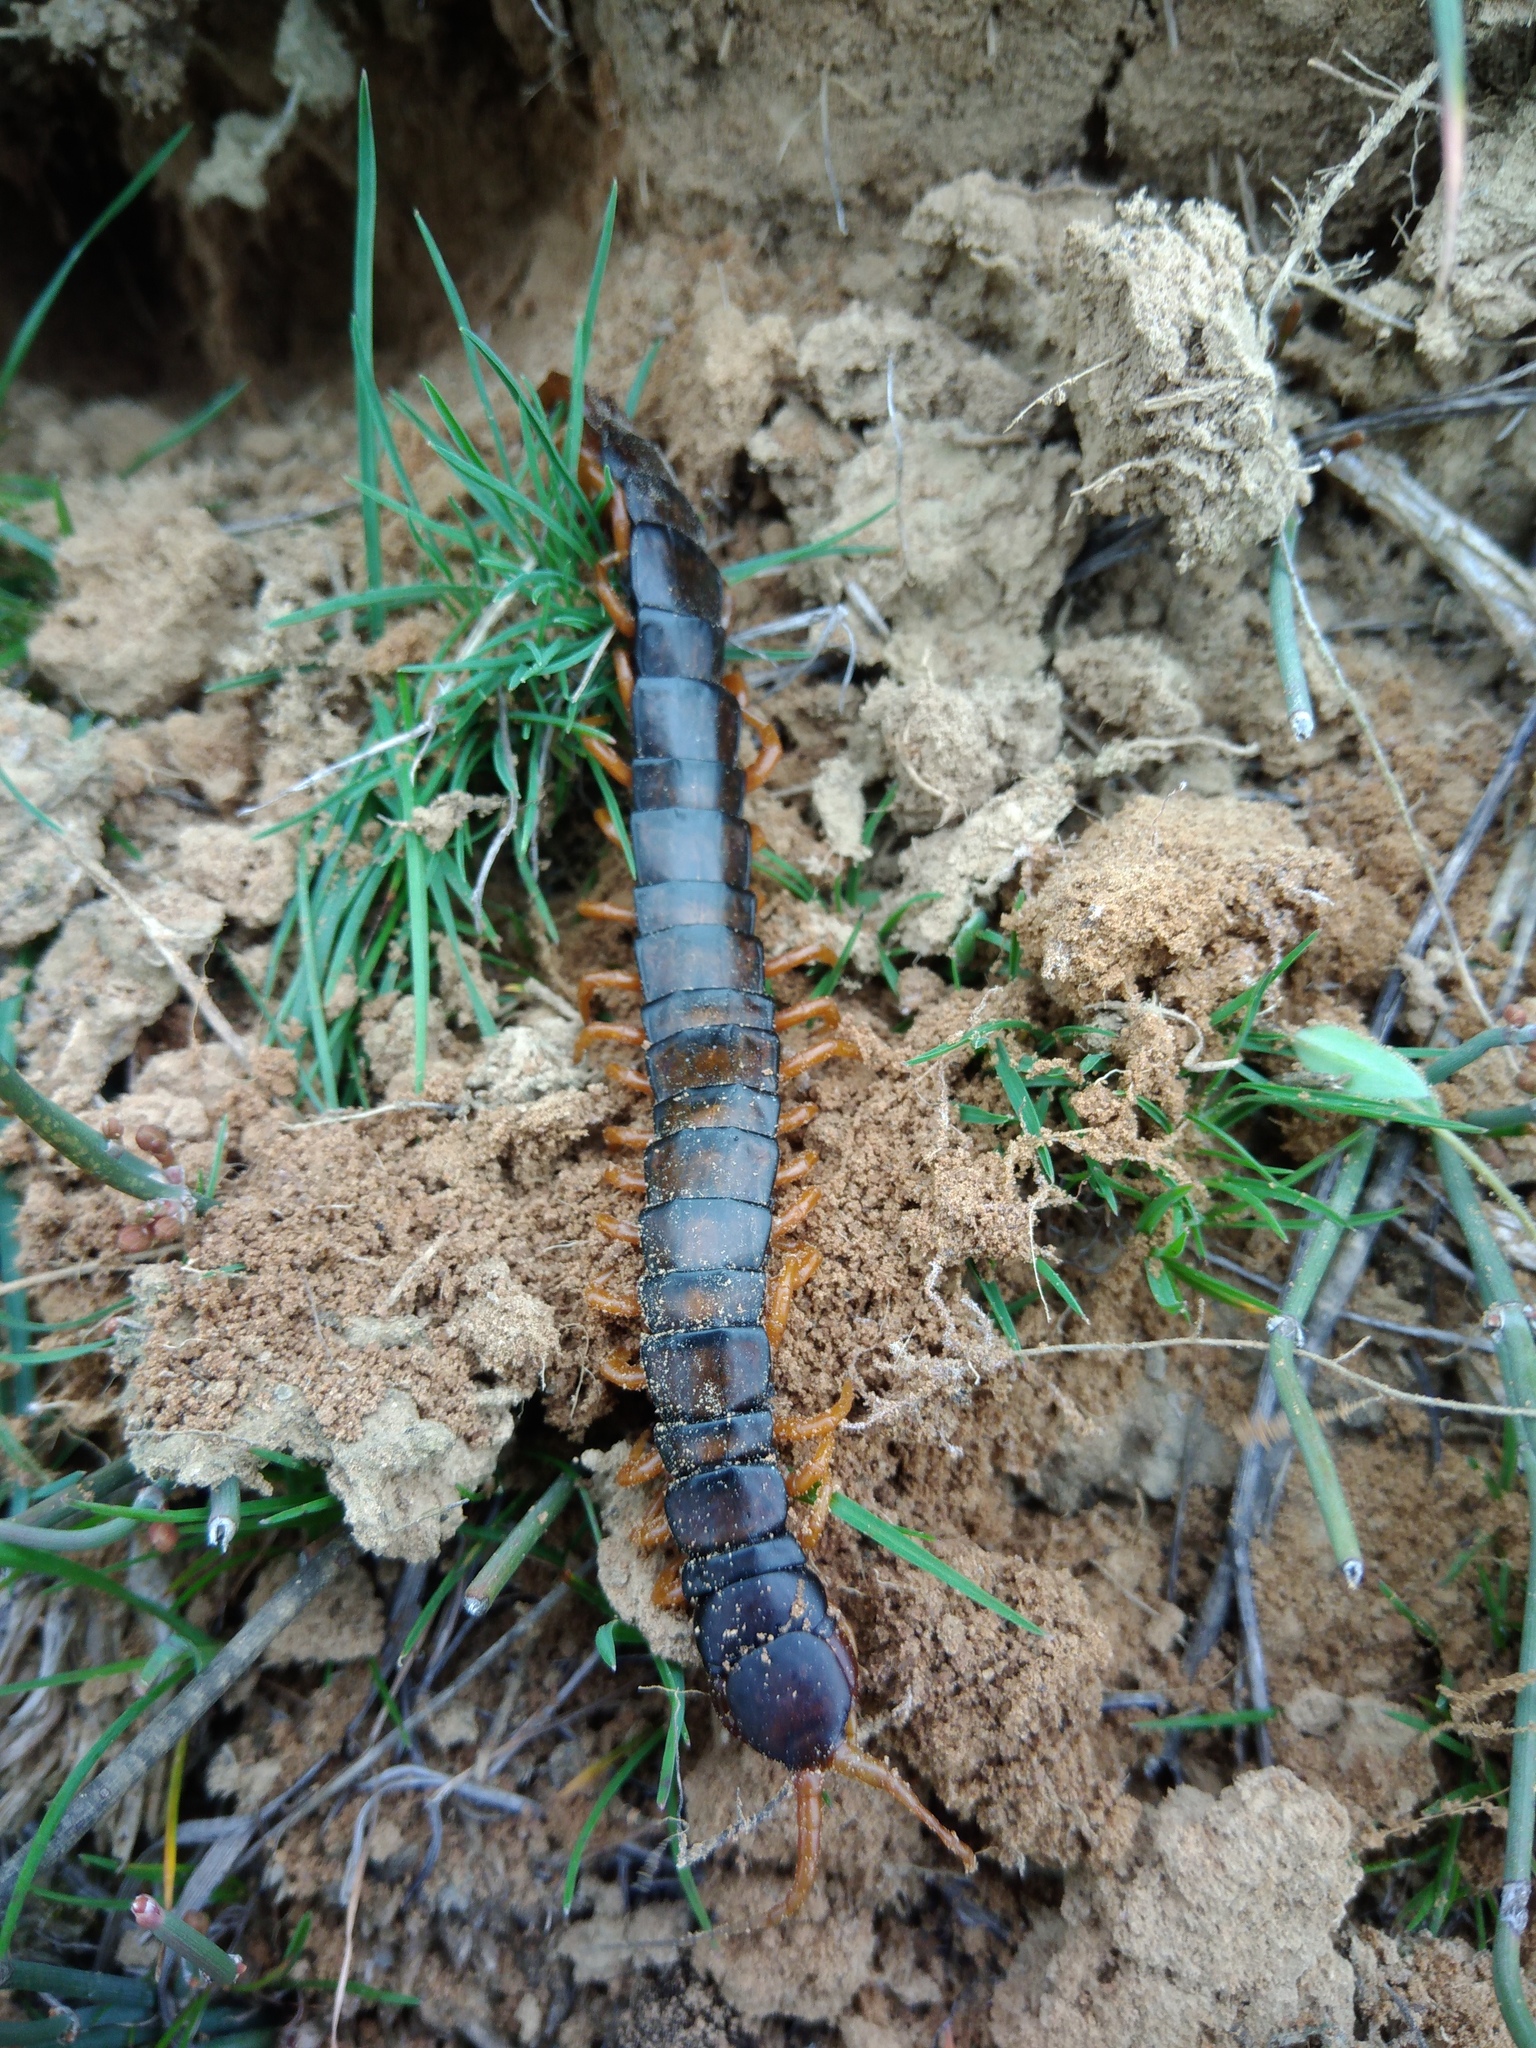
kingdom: Animalia
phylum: Arthropoda
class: Chilopoda
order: Scolopendromorpha
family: Scolopendridae
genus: Scolopendra
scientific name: Scolopendra cingulata
